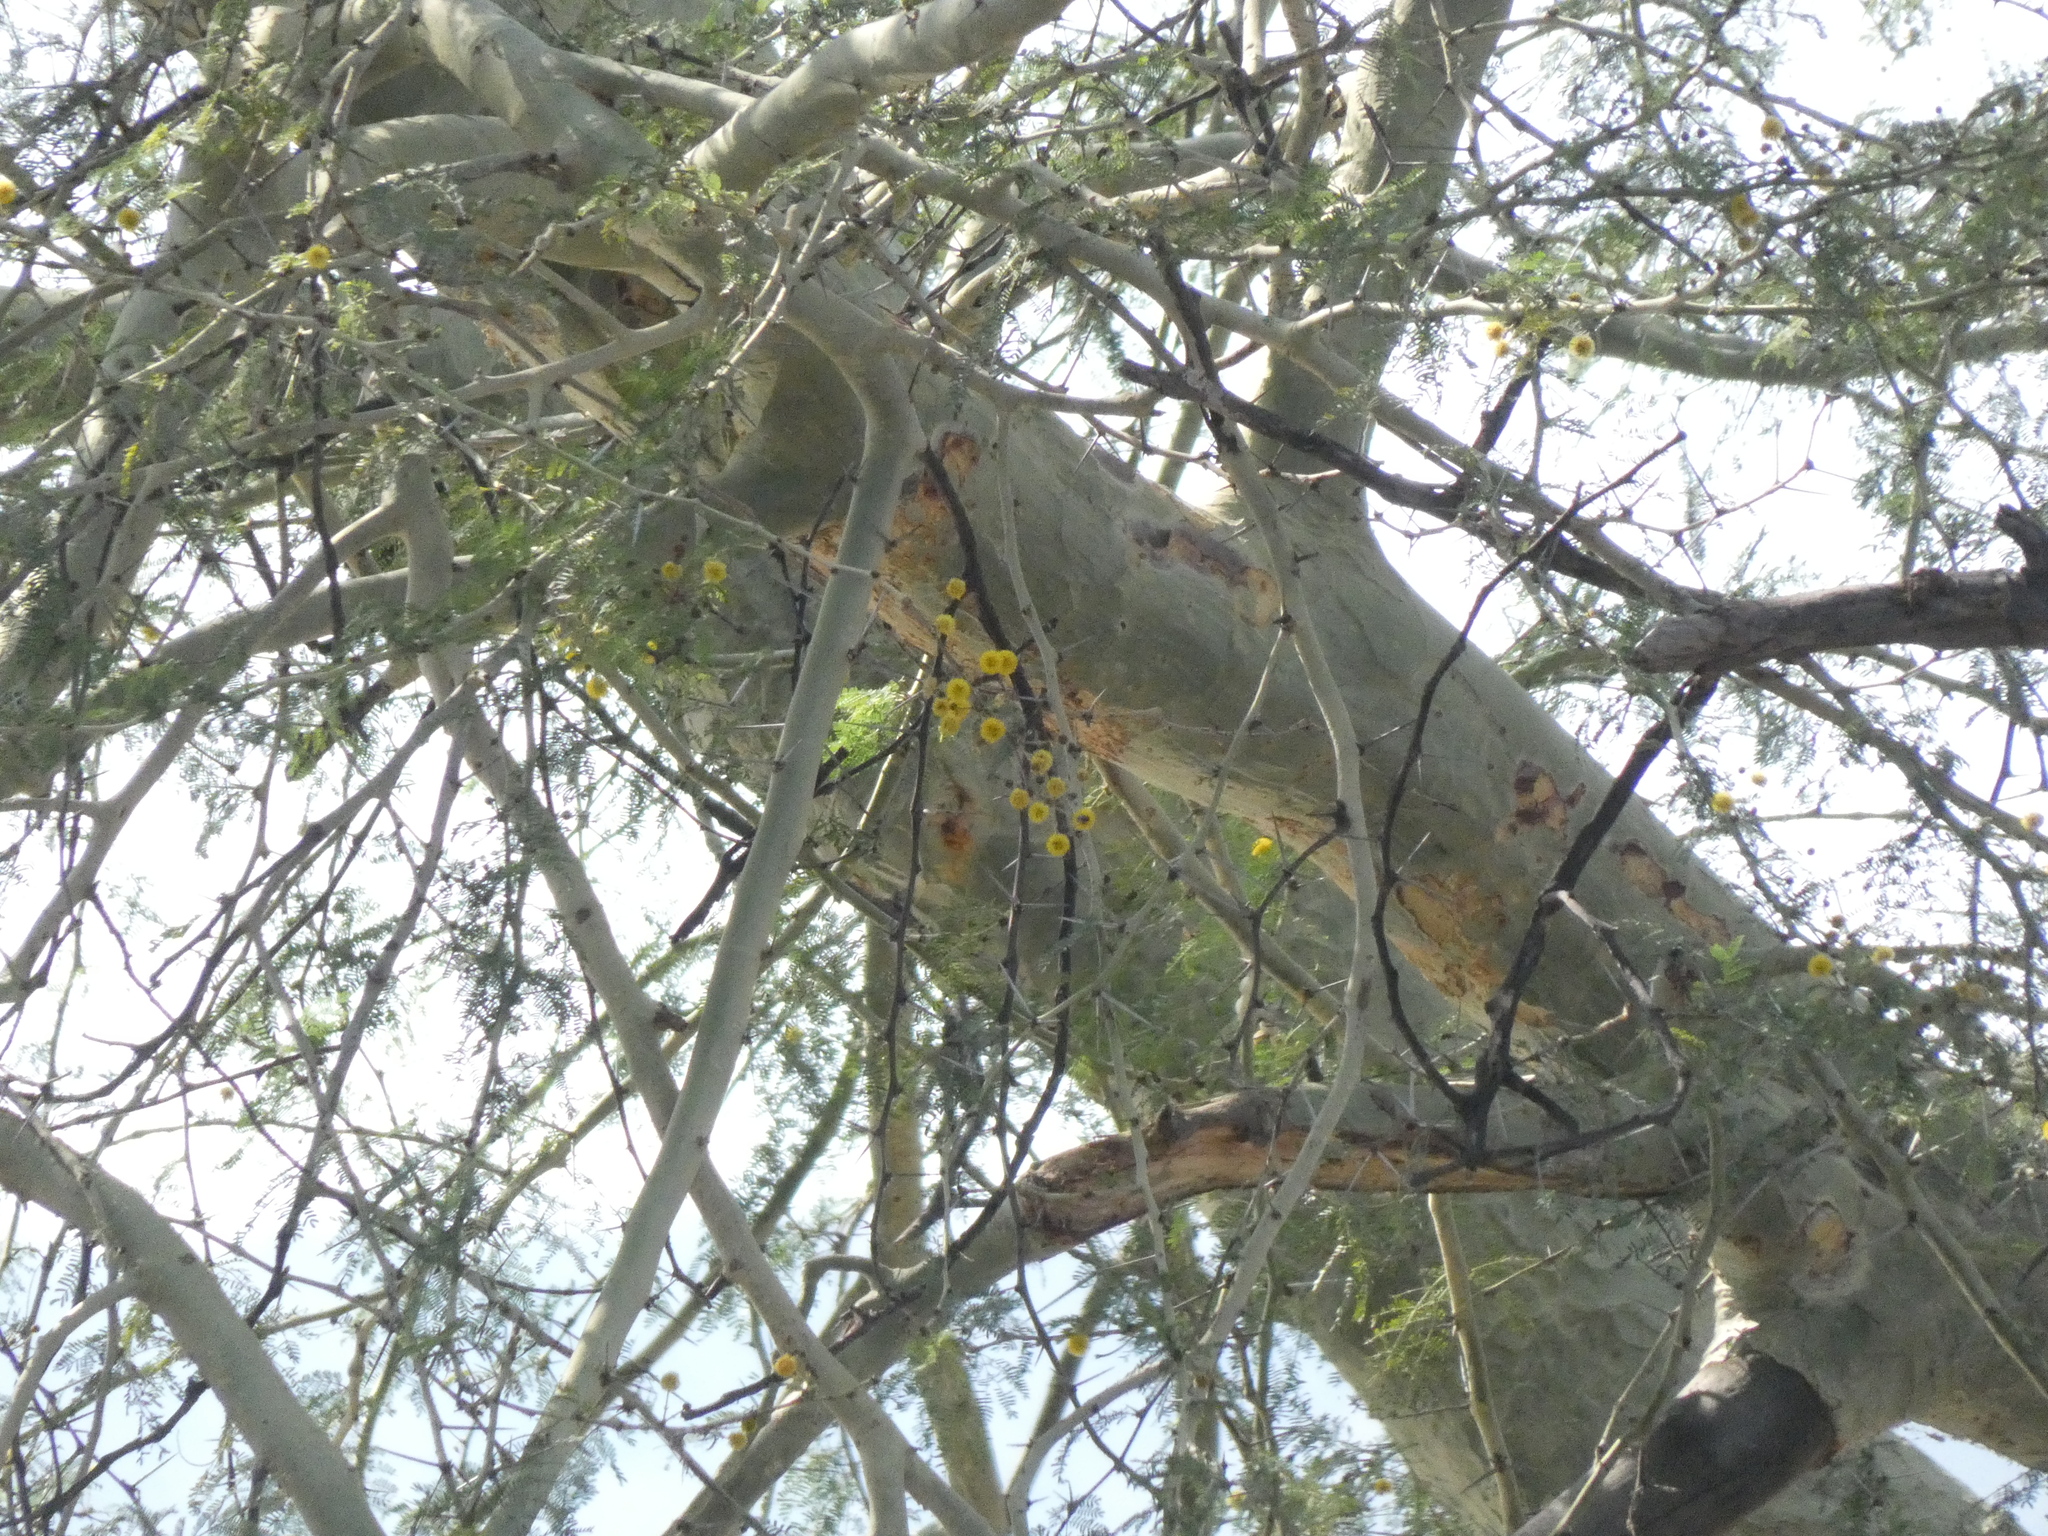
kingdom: Plantae
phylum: Tracheophyta
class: Magnoliopsida
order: Fabales
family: Fabaceae
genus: Vachellia
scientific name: Vachellia xanthophloea
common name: Fever tree
